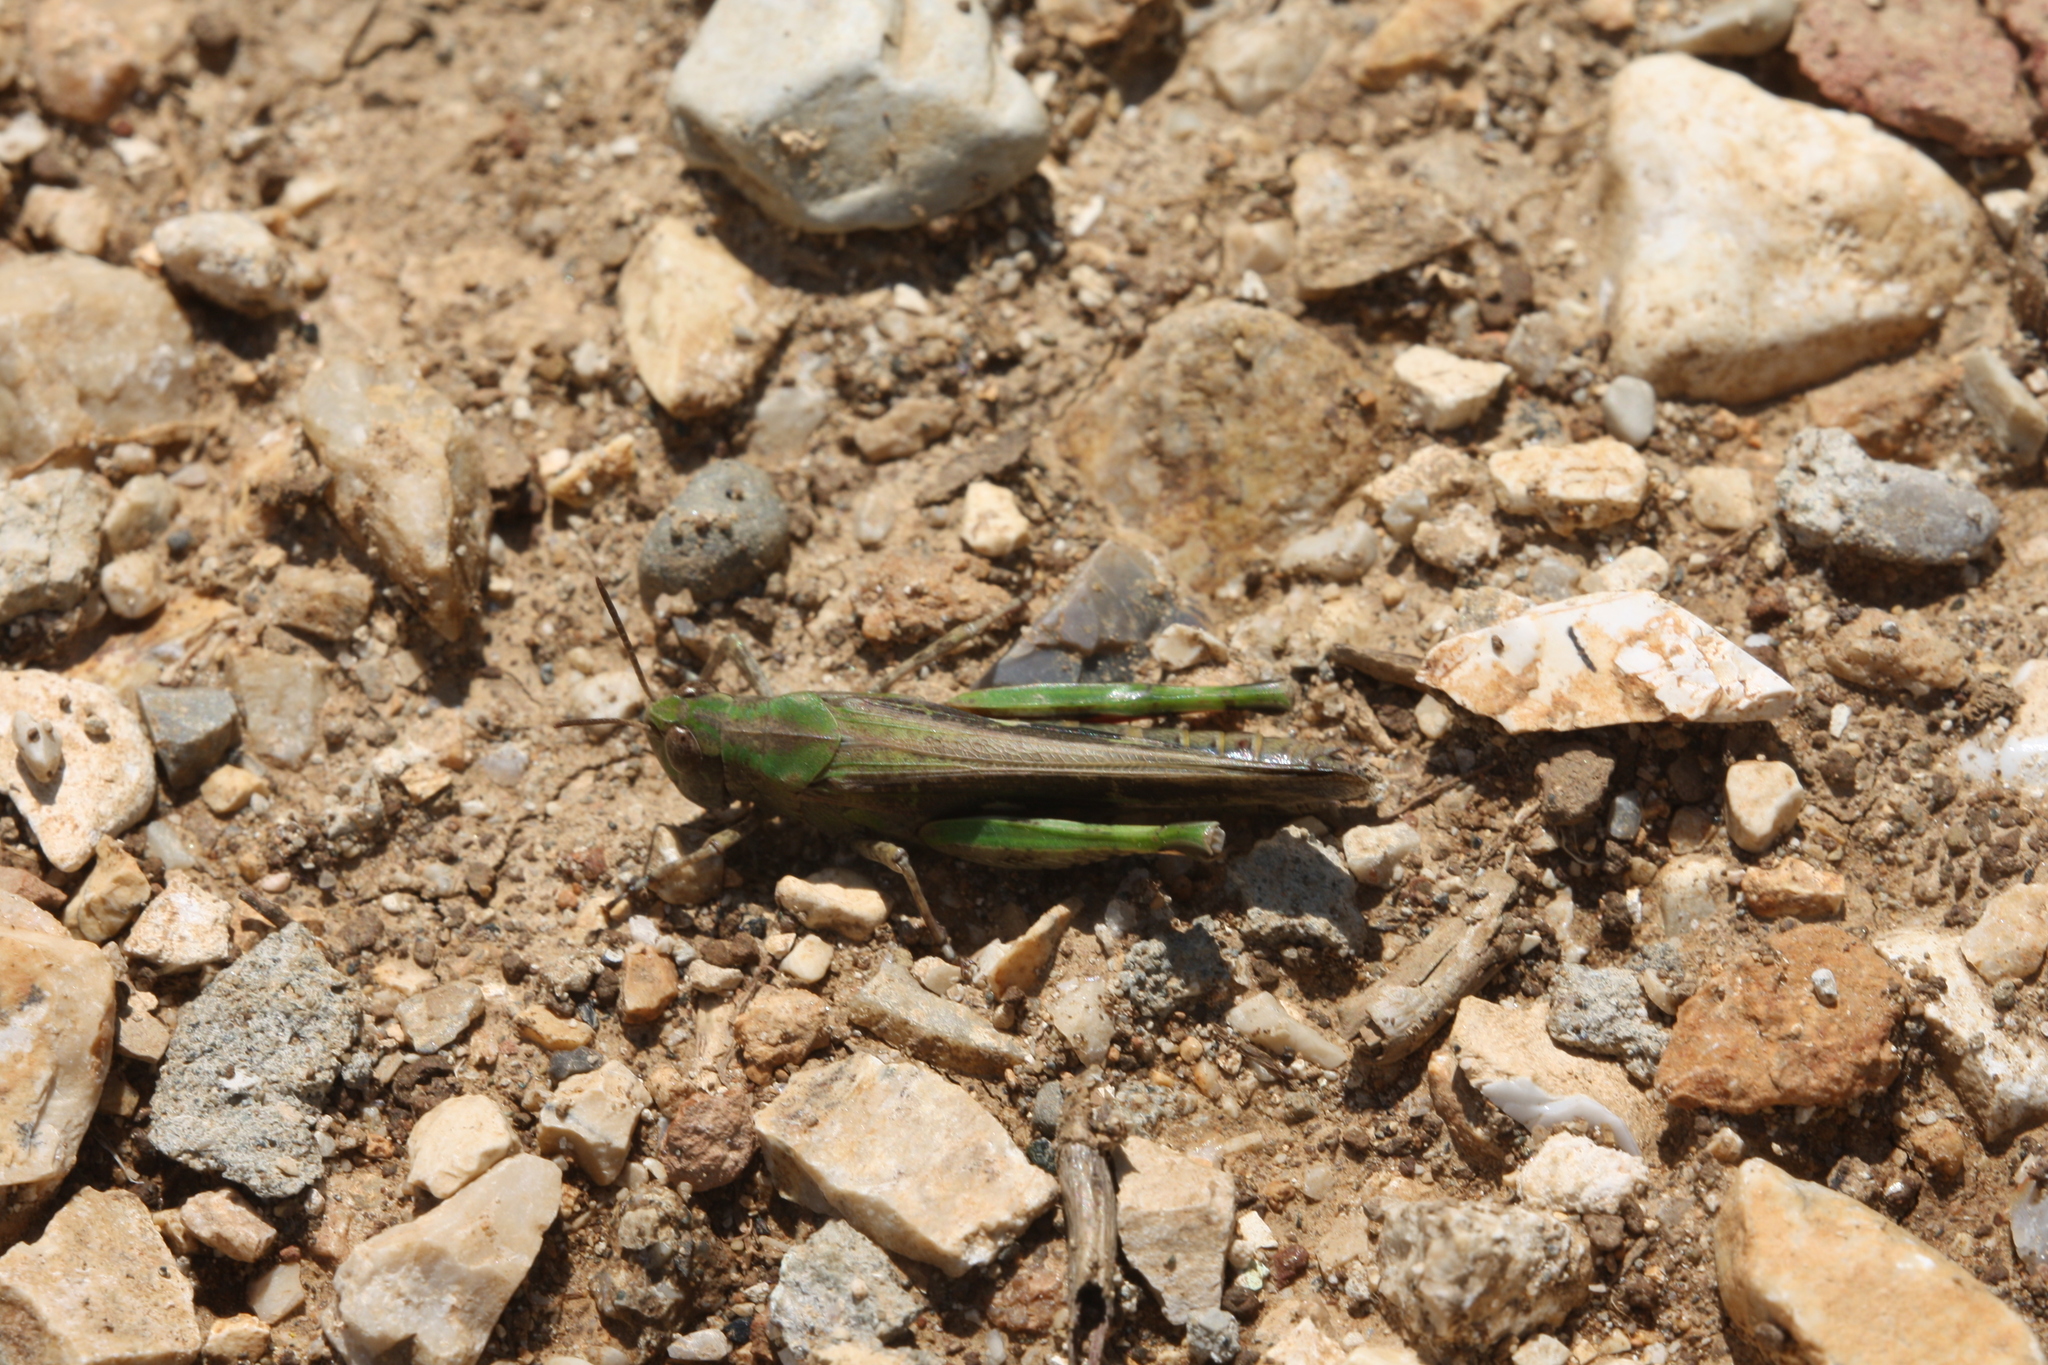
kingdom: Animalia
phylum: Arthropoda
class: Insecta
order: Orthoptera
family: Acrididae
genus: Aiolopus
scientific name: Aiolopus strepens
